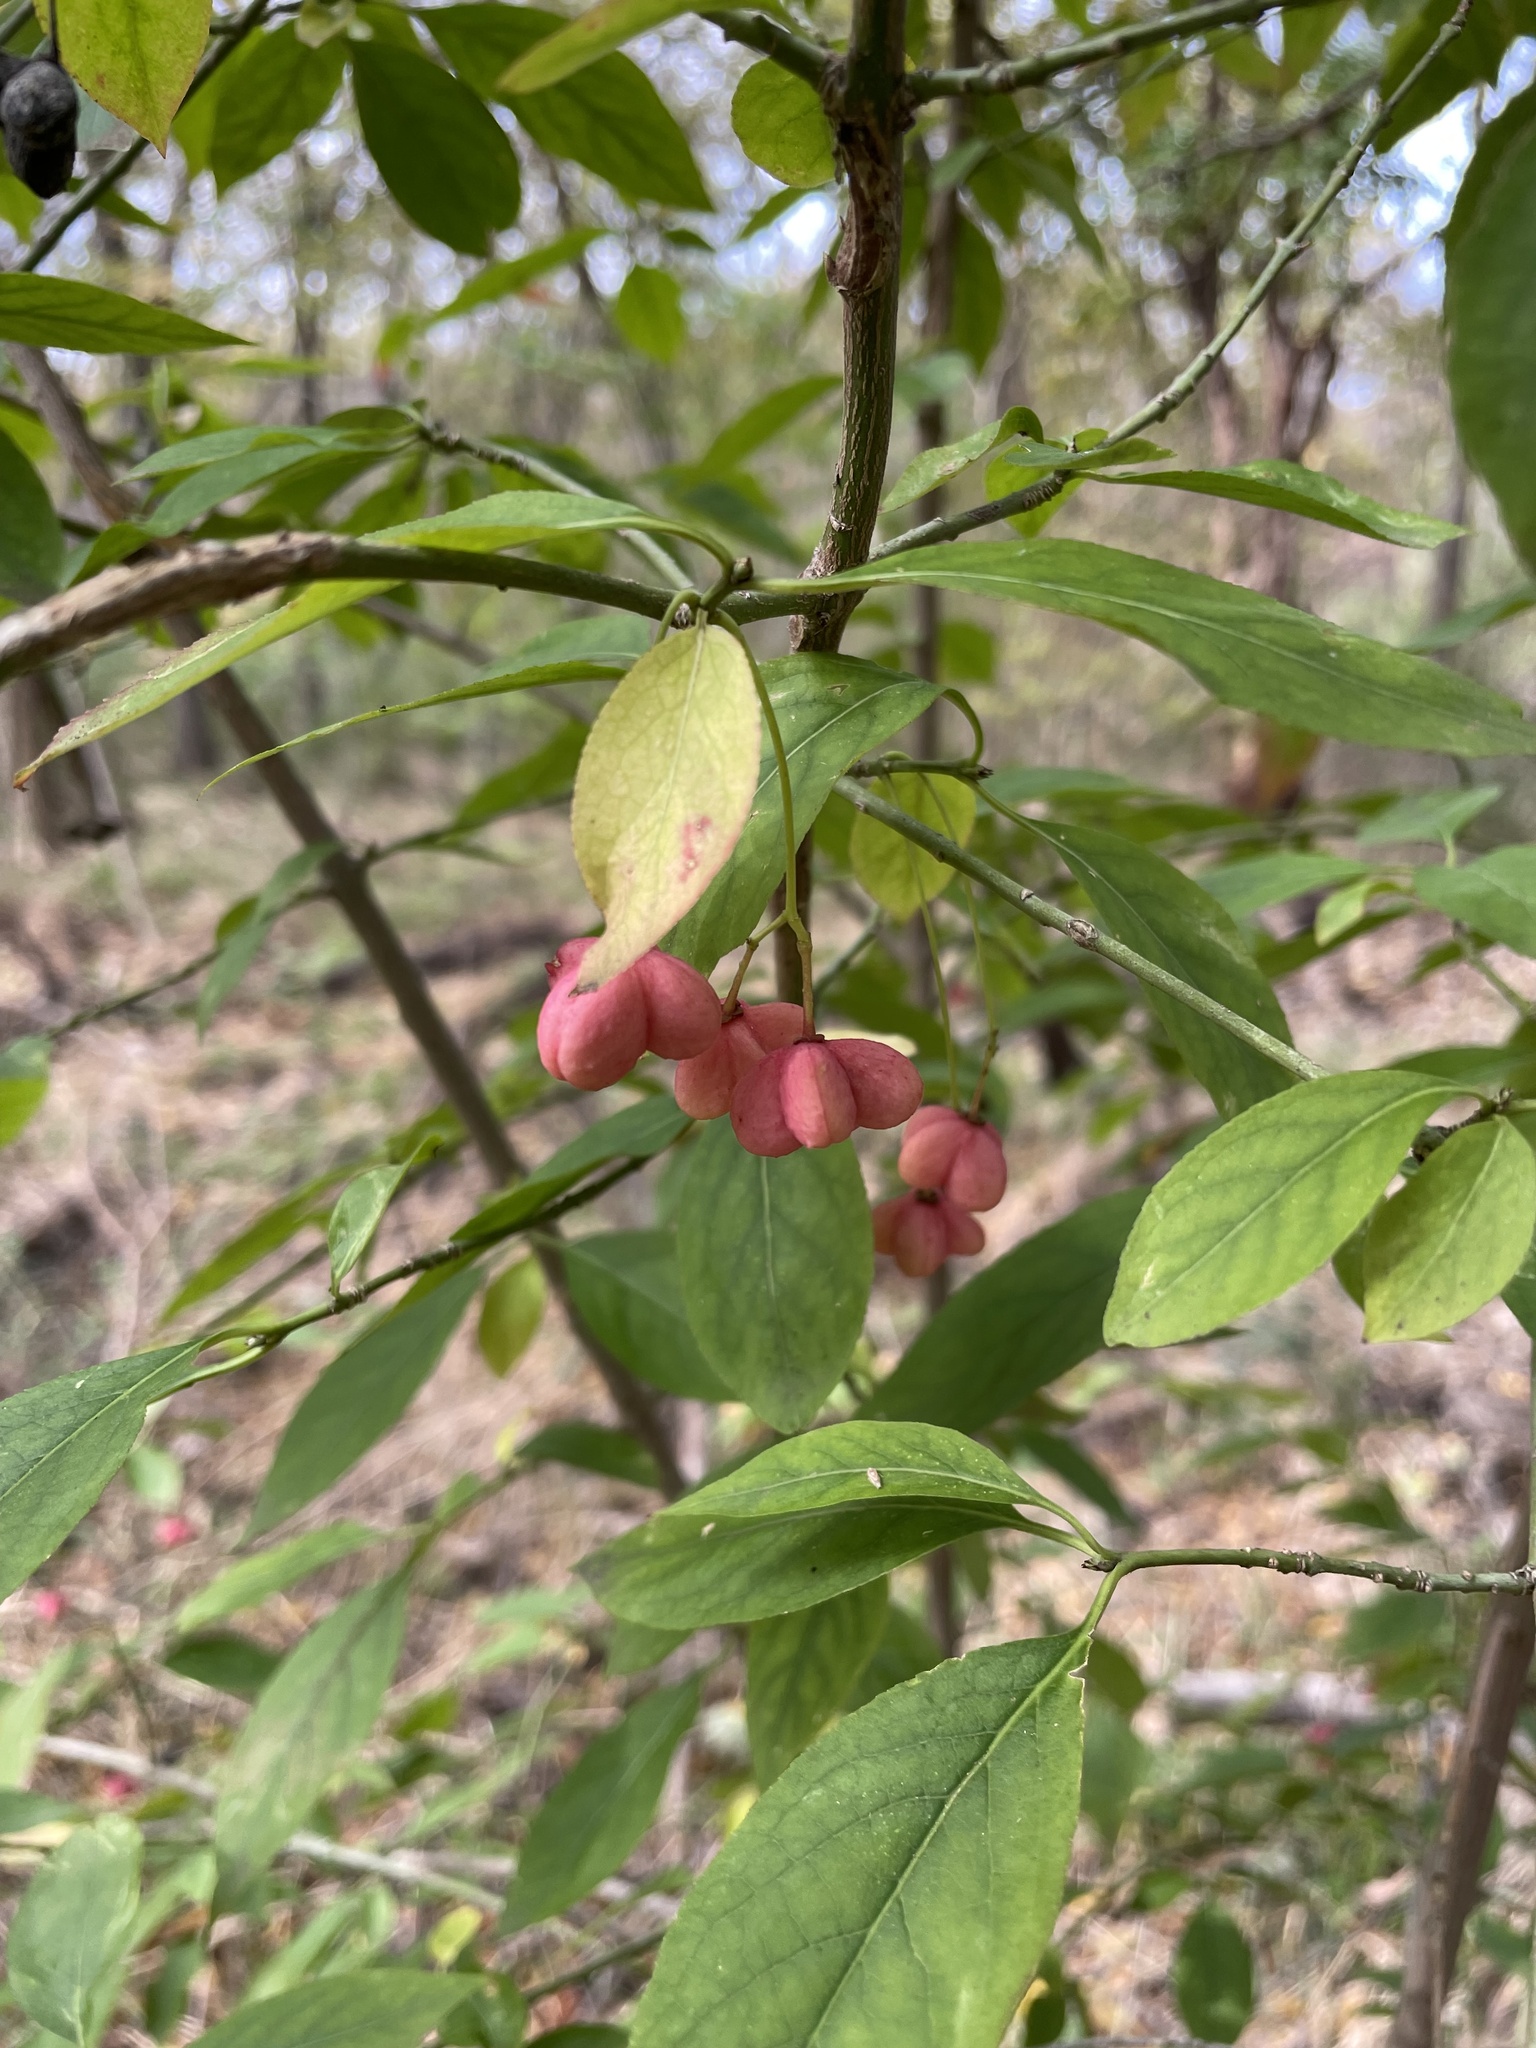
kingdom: Plantae
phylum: Tracheophyta
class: Magnoliopsida
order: Celastrales
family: Celastraceae
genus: Euonymus
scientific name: Euonymus atropurpureus
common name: Eastern wahoo
